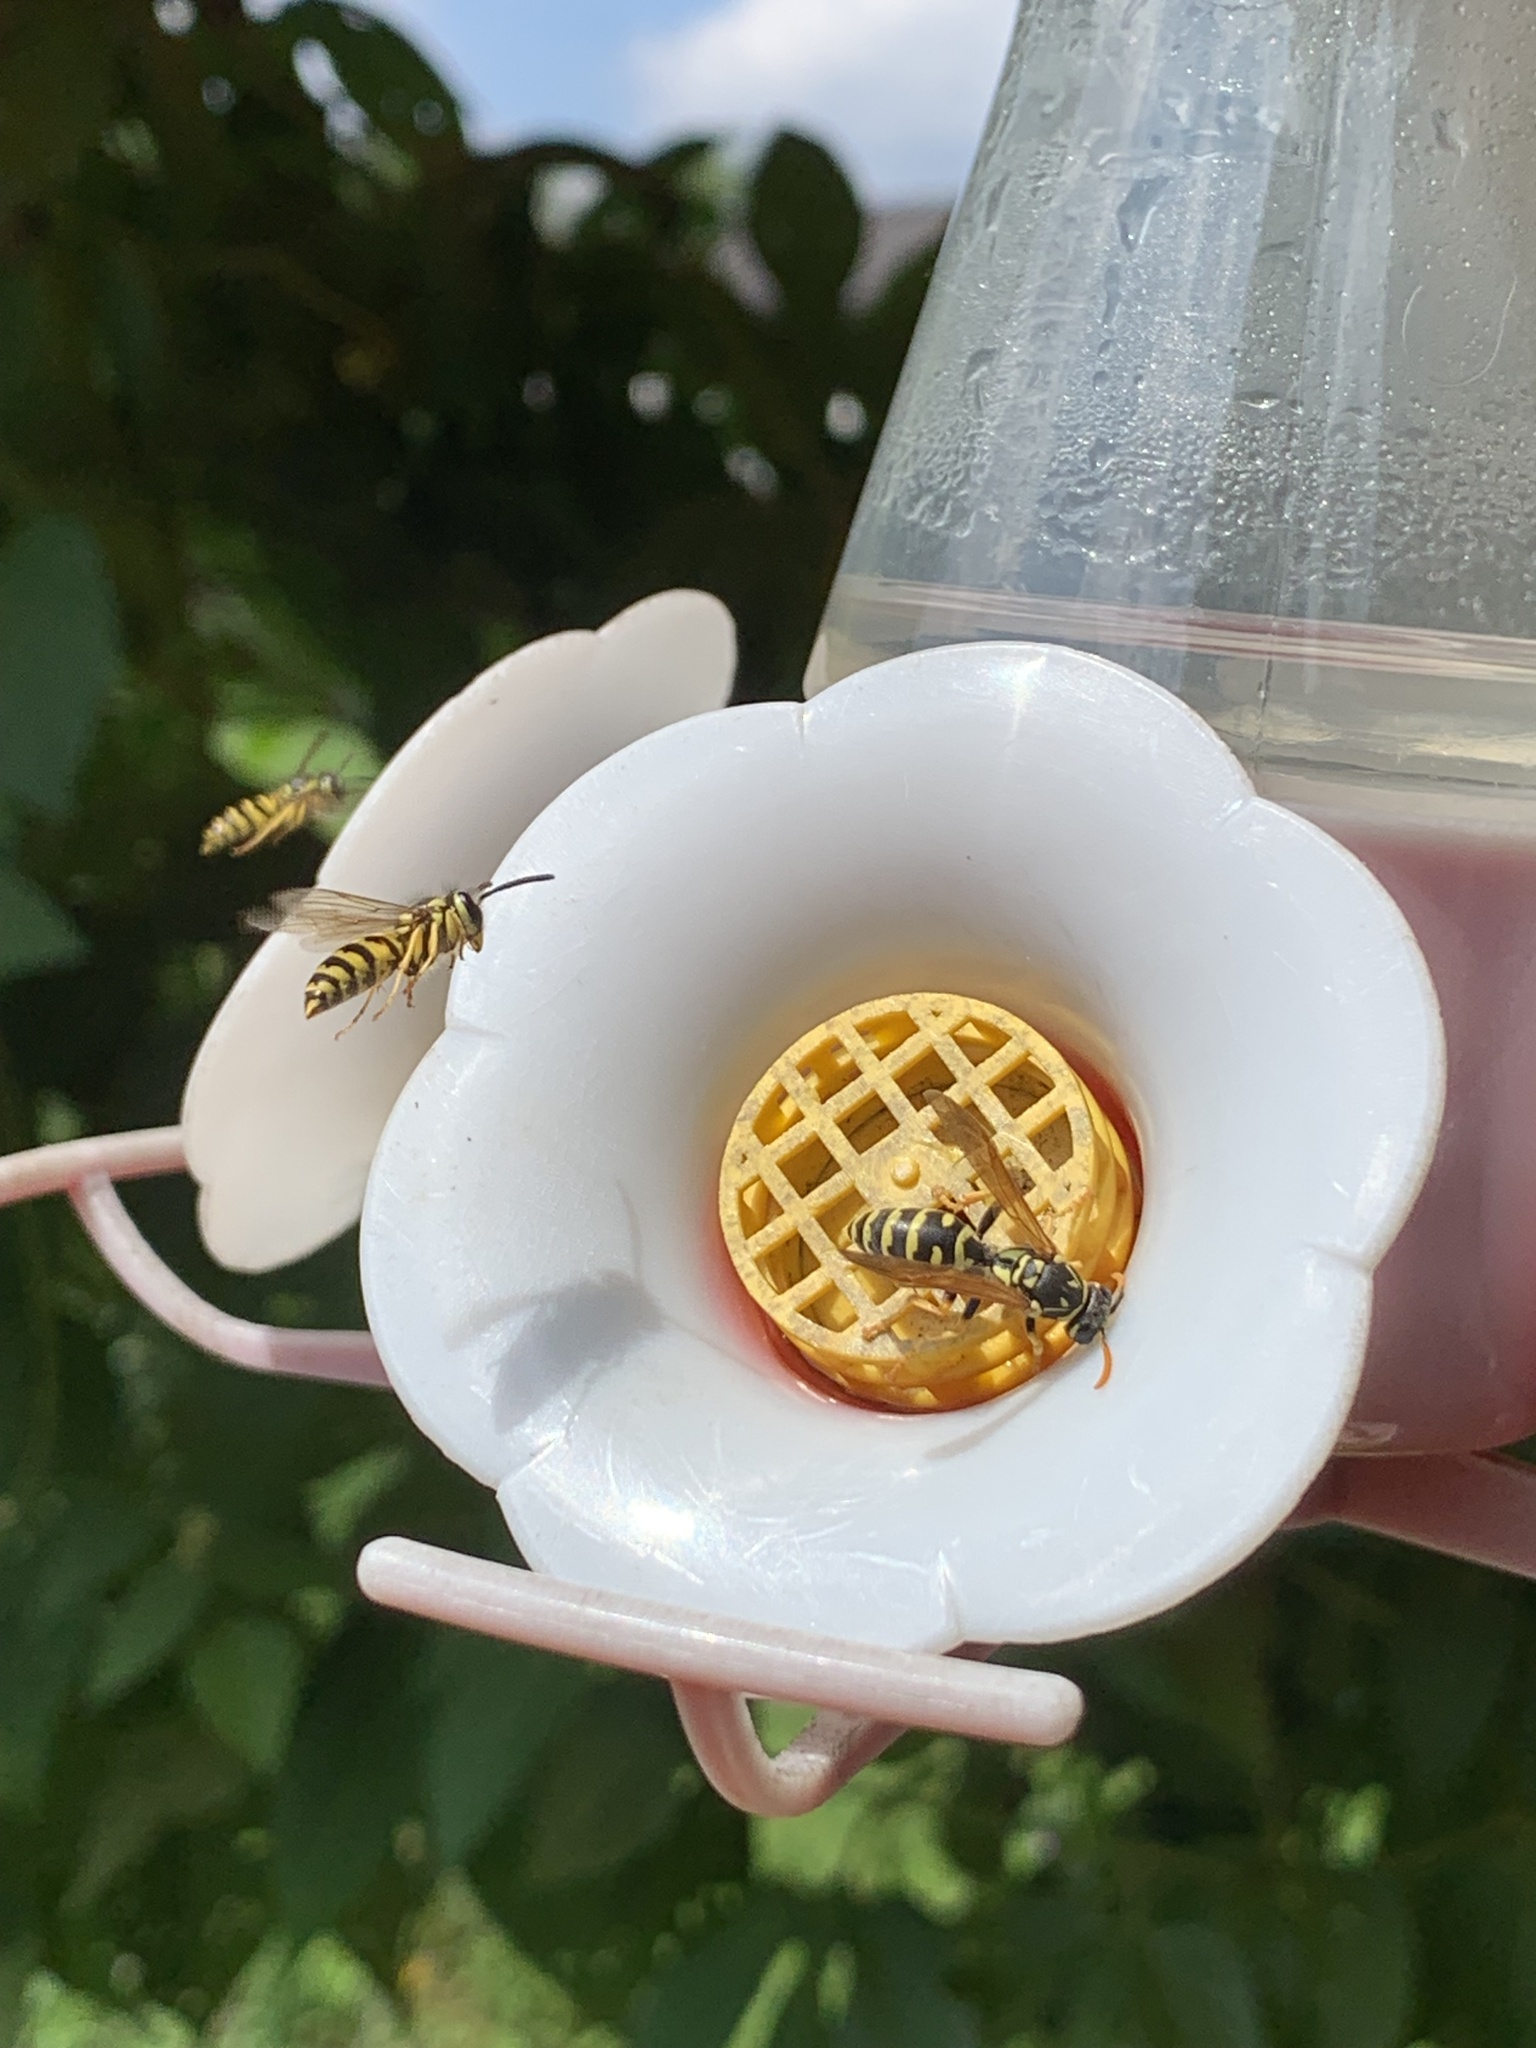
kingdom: Animalia
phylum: Arthropoda
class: Insecta
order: Hymenoptera
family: Eumenidae
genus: Polistes
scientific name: Polistes dominula
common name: Paper wasp
